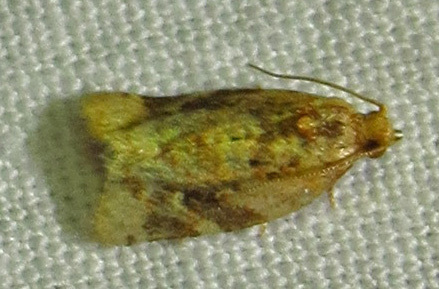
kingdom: Animalia
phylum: Arthropoda
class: Insecta
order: Lepidoptera
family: Tortricidae
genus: Argyrotaenia
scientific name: Argyrotaenia velutinana
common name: Red-banded leafroller moth
